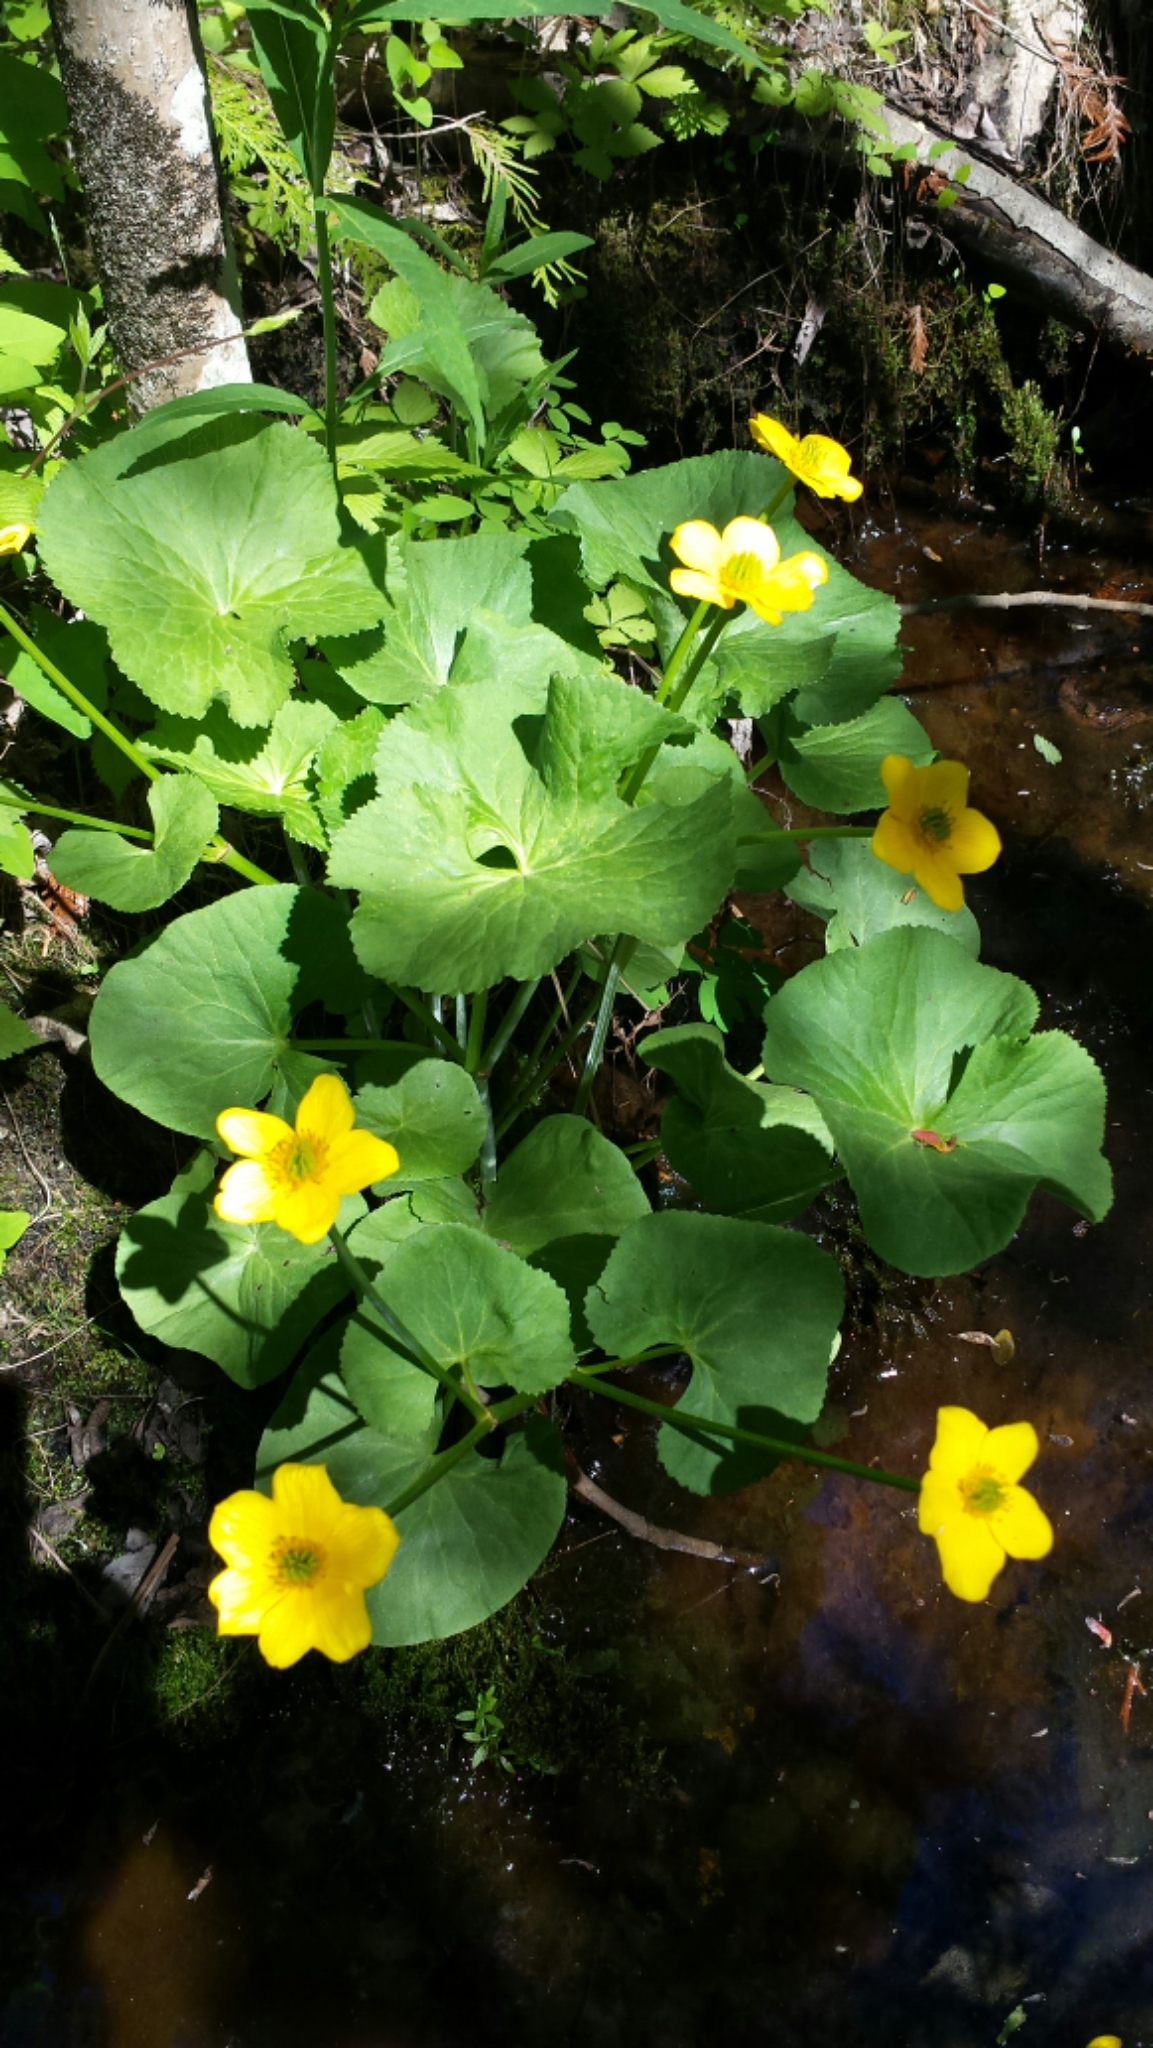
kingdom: Plantae
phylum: Tracheophyta
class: Magnoliopsida
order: Ranunculales
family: Ranunculaceae
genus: Caltha
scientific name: Caltha palustris
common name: Marsh marigold
